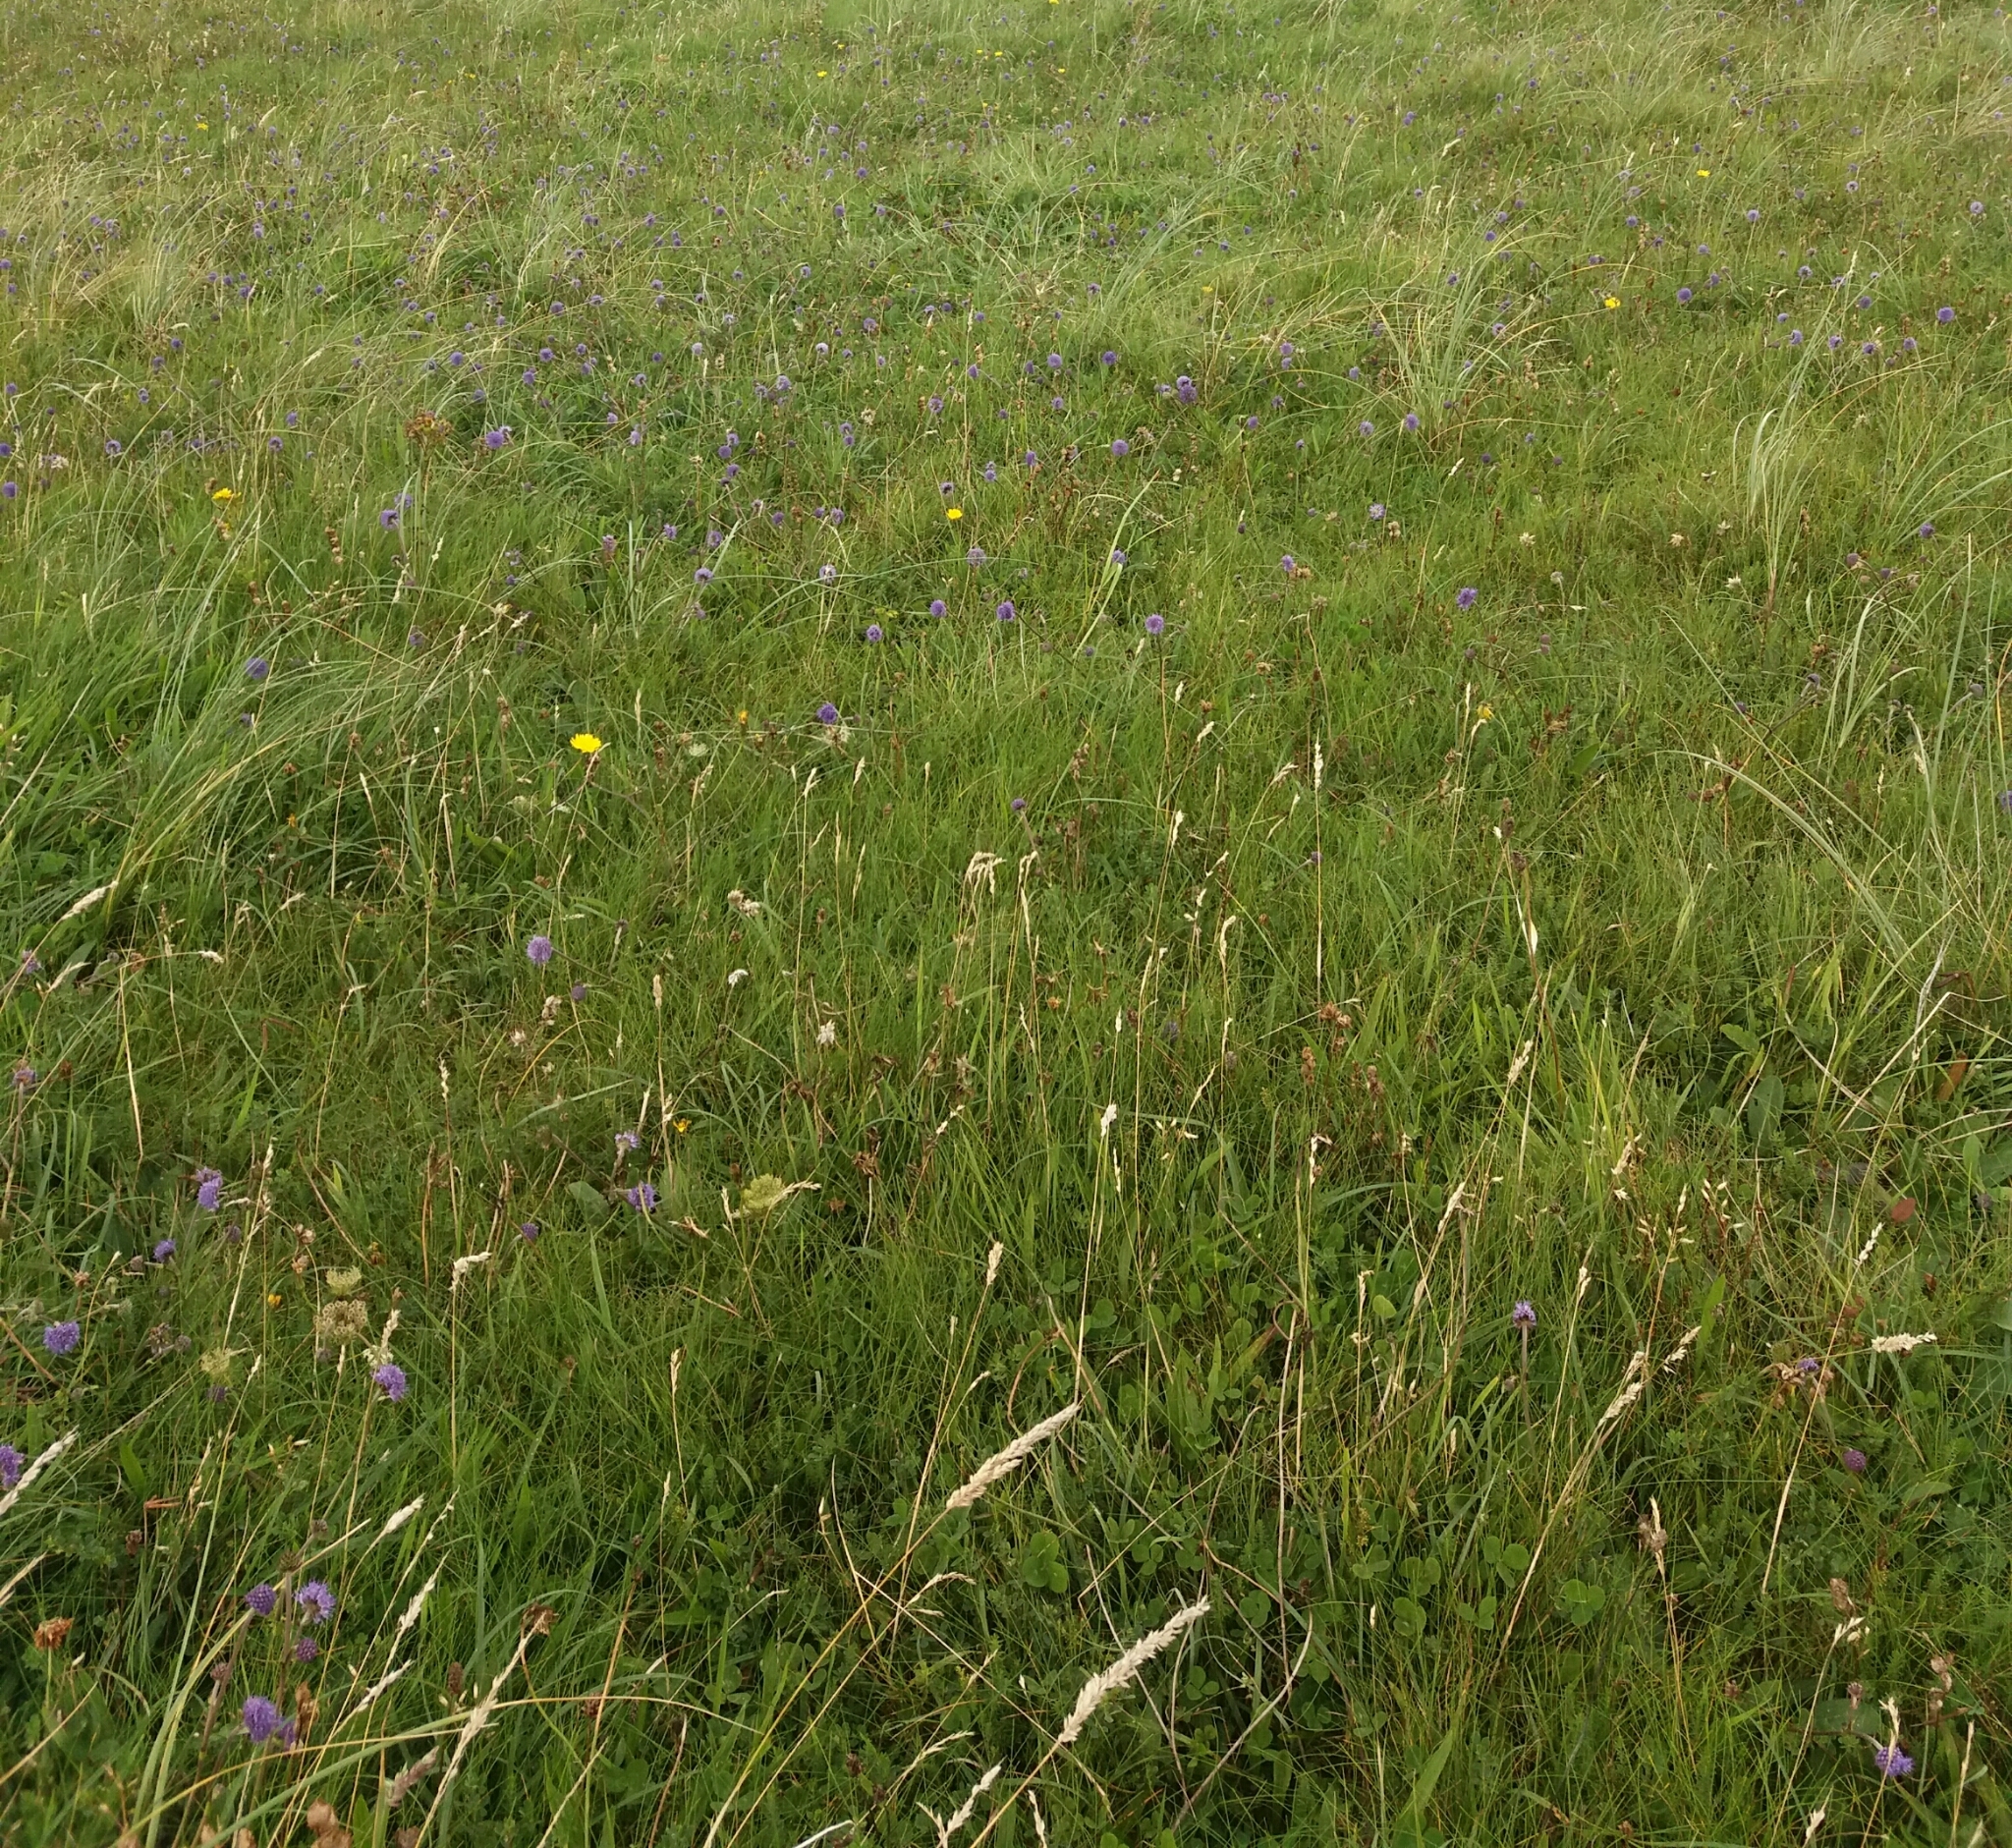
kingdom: Plantae
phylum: Tracheophyta
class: Magnoliopsida
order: Dipsacales
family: Caprifoliaceae
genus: Succisa
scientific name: Succisa pratensis
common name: Devil's-bit
